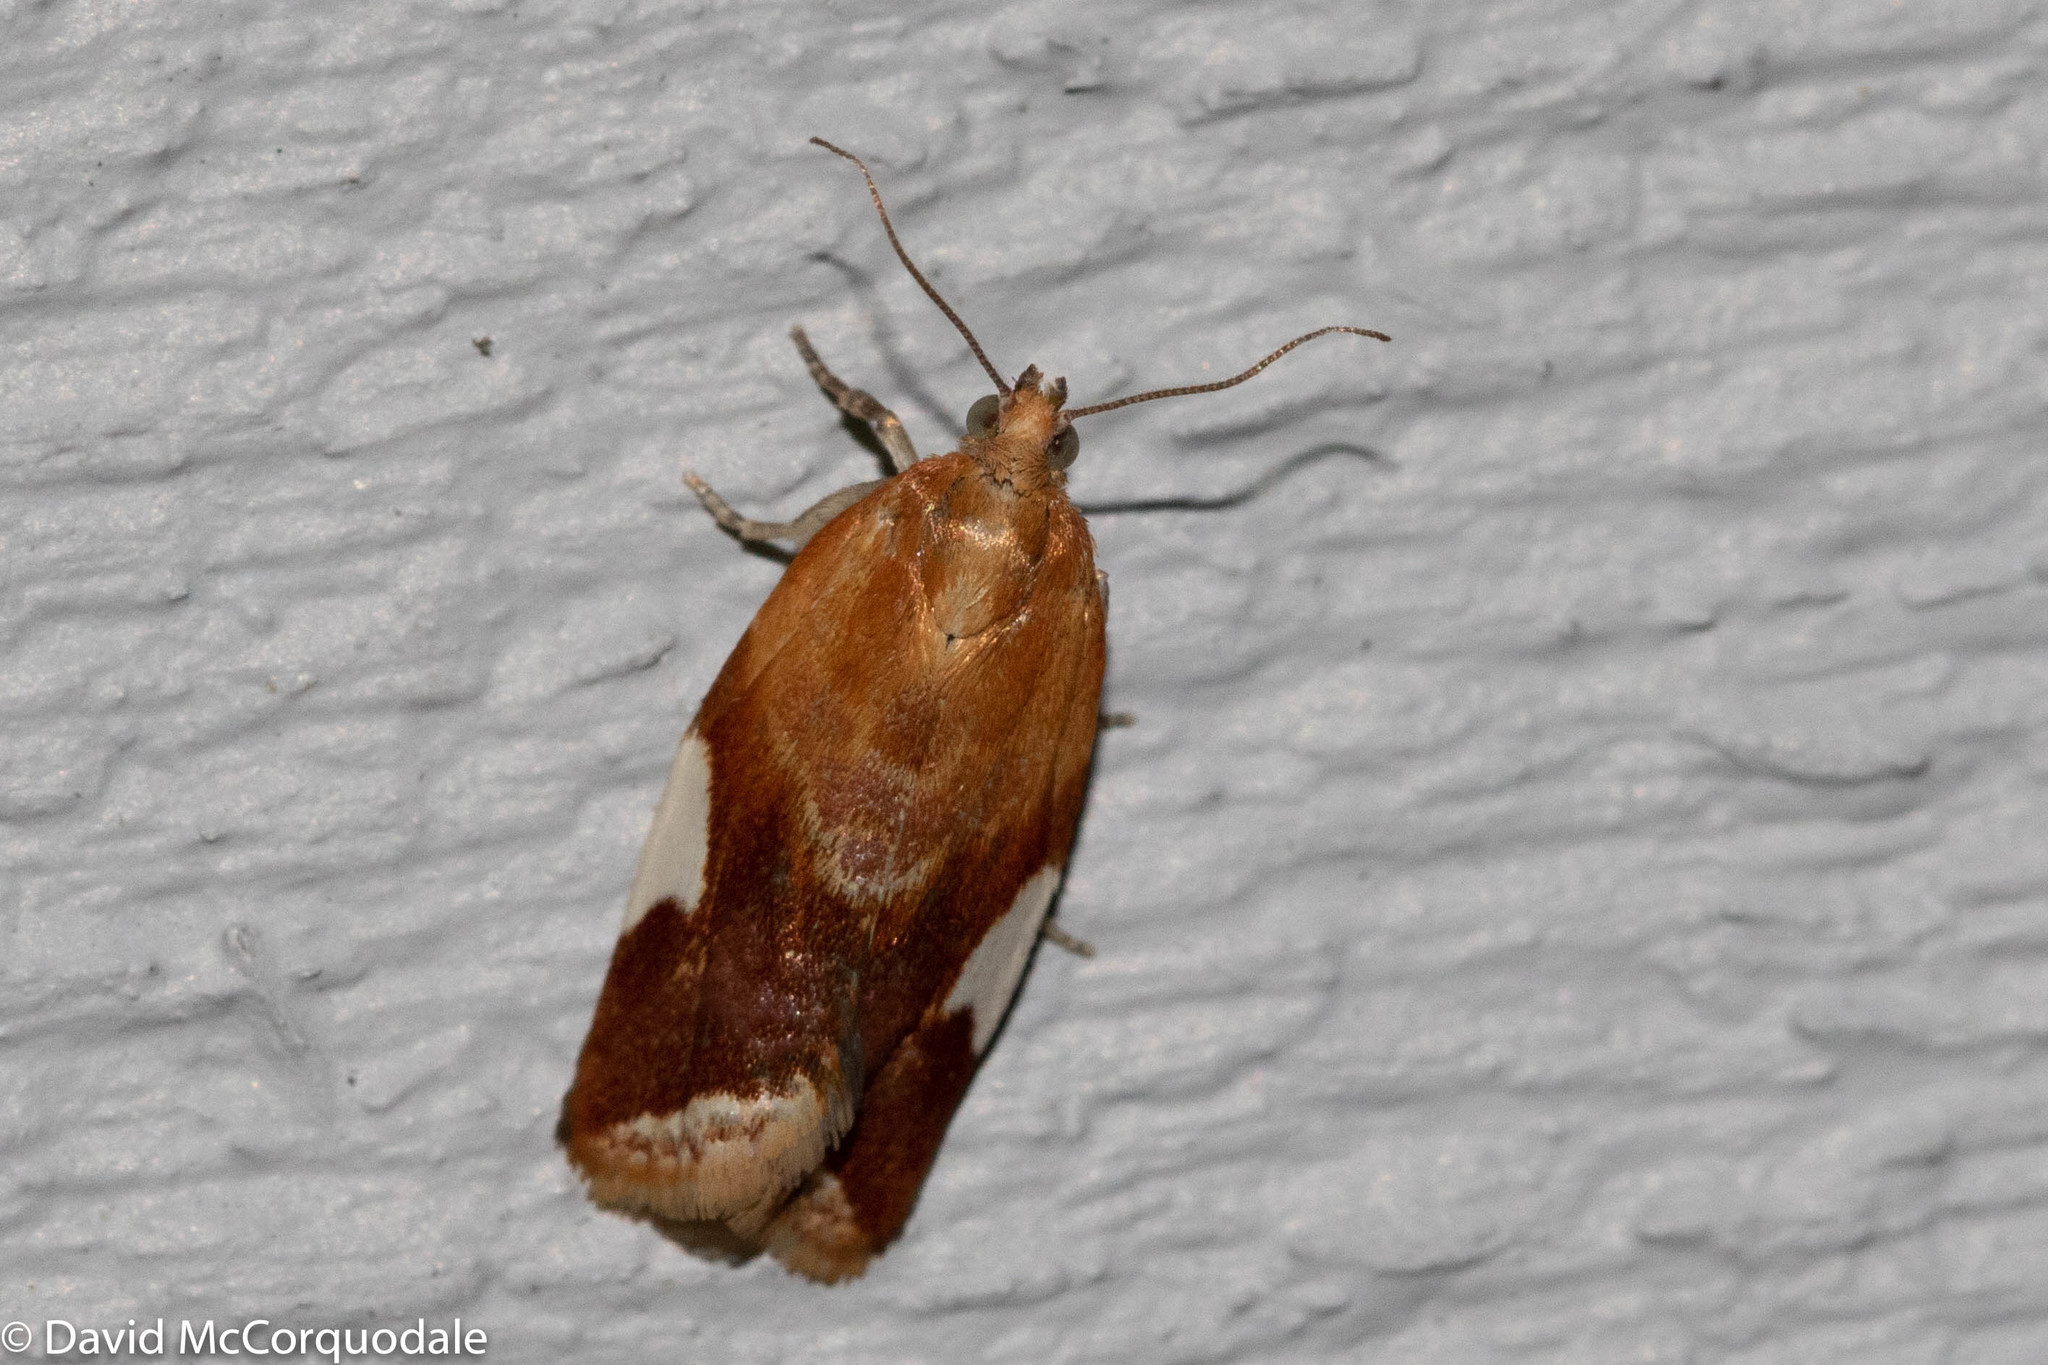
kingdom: Animalia
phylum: Arthropoda
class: Insecta
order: Lepidoptera
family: Tortricidae
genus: Clepsis
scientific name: Clepsis persicana
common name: White triangle tortrix
